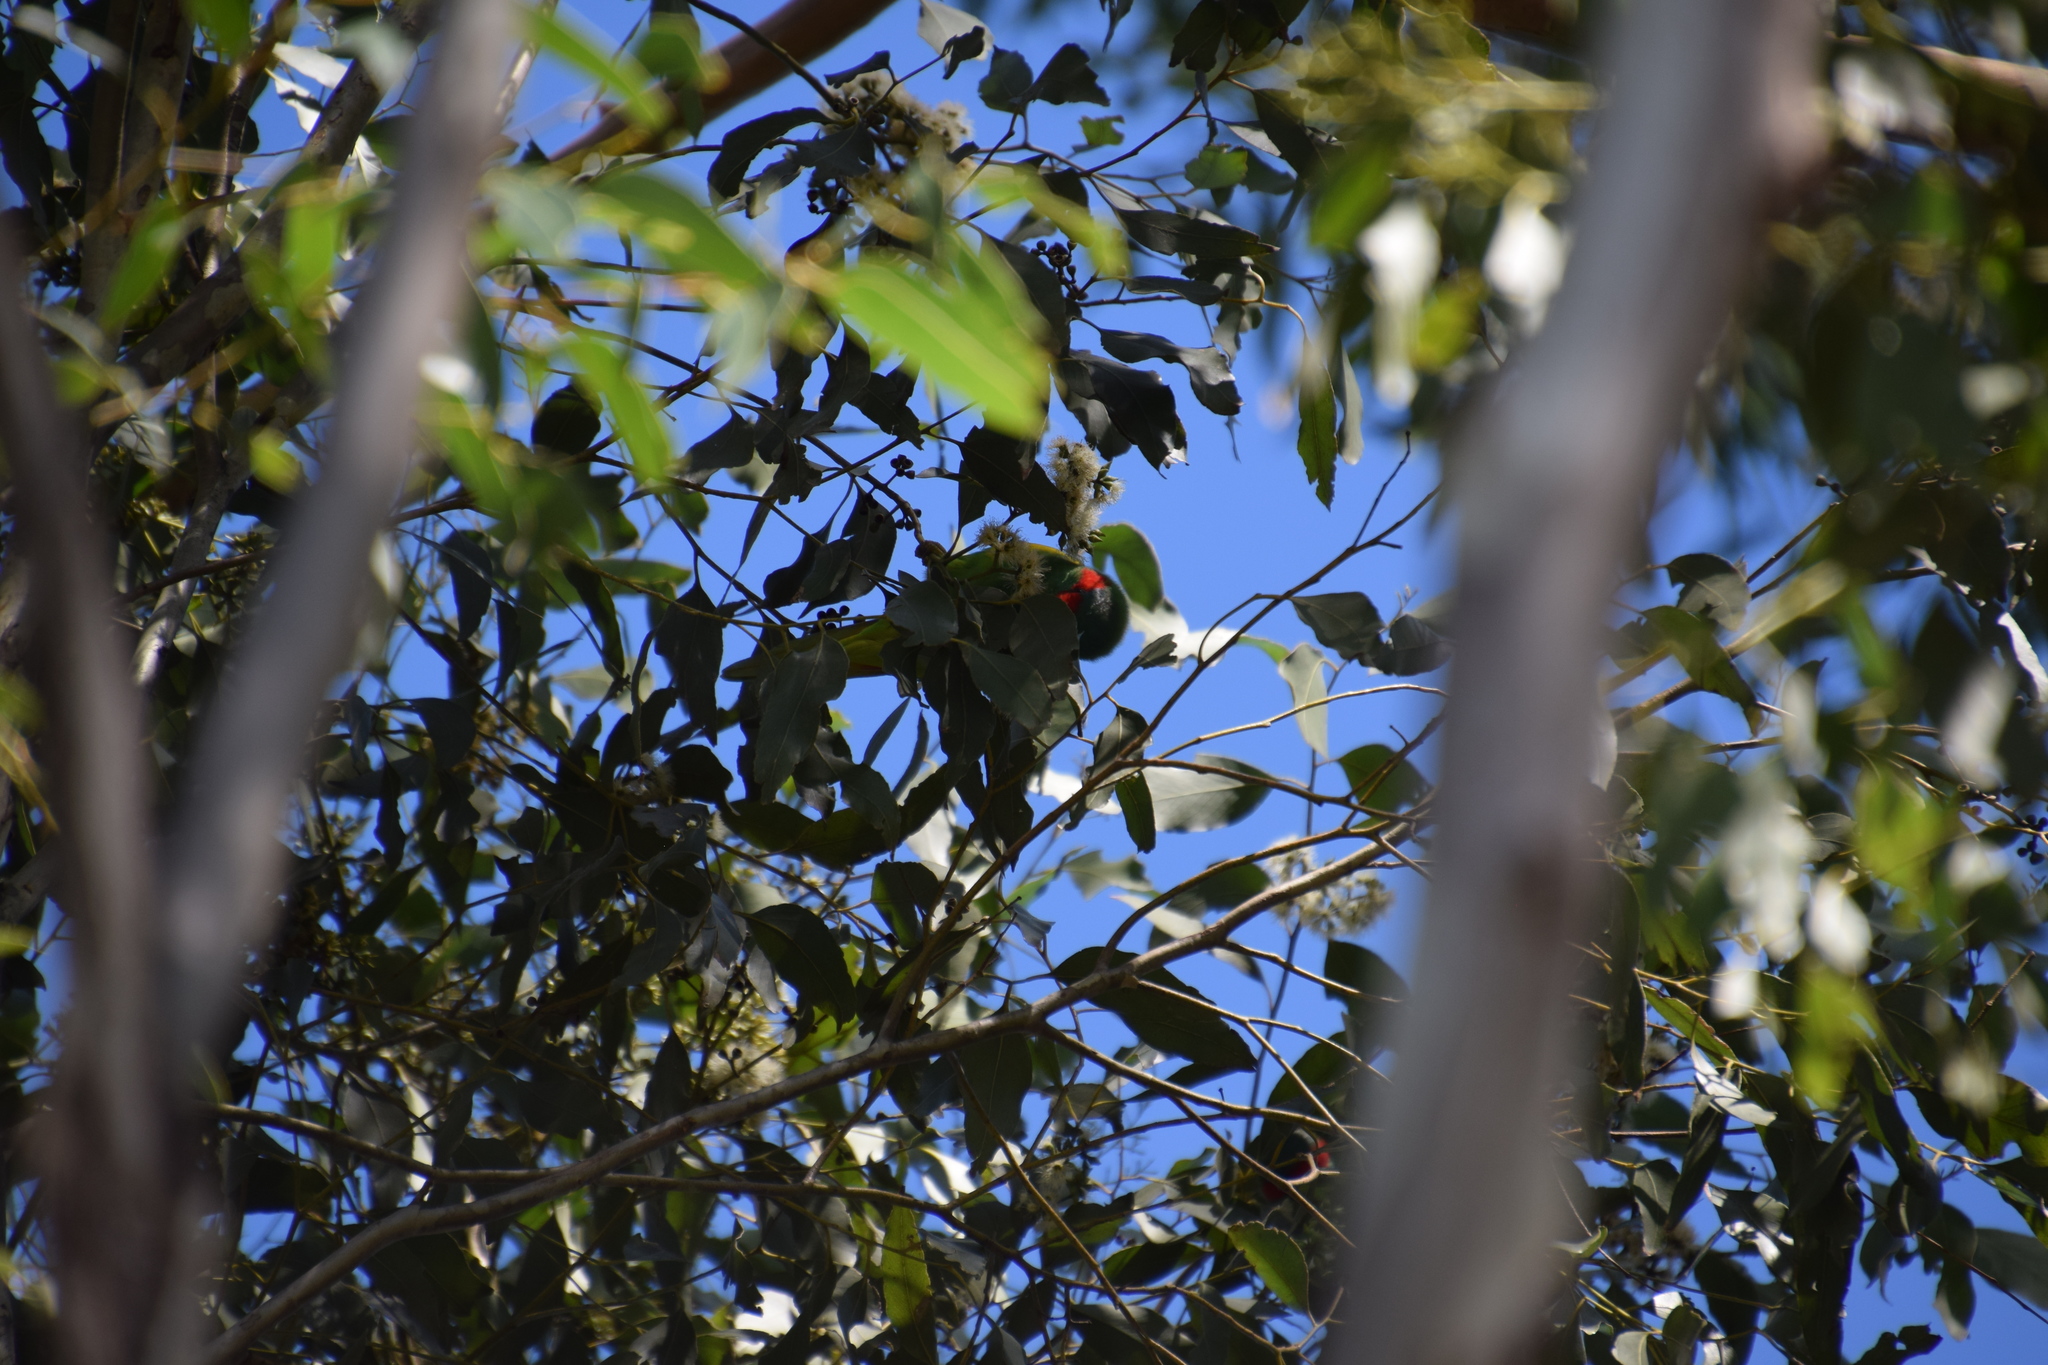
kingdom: Animalia
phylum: Chordata
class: Aves
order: Psittaciformes
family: Psittacidae
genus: Glossopsitta
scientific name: Glossopsitta concinna
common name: Musk lorikeet
